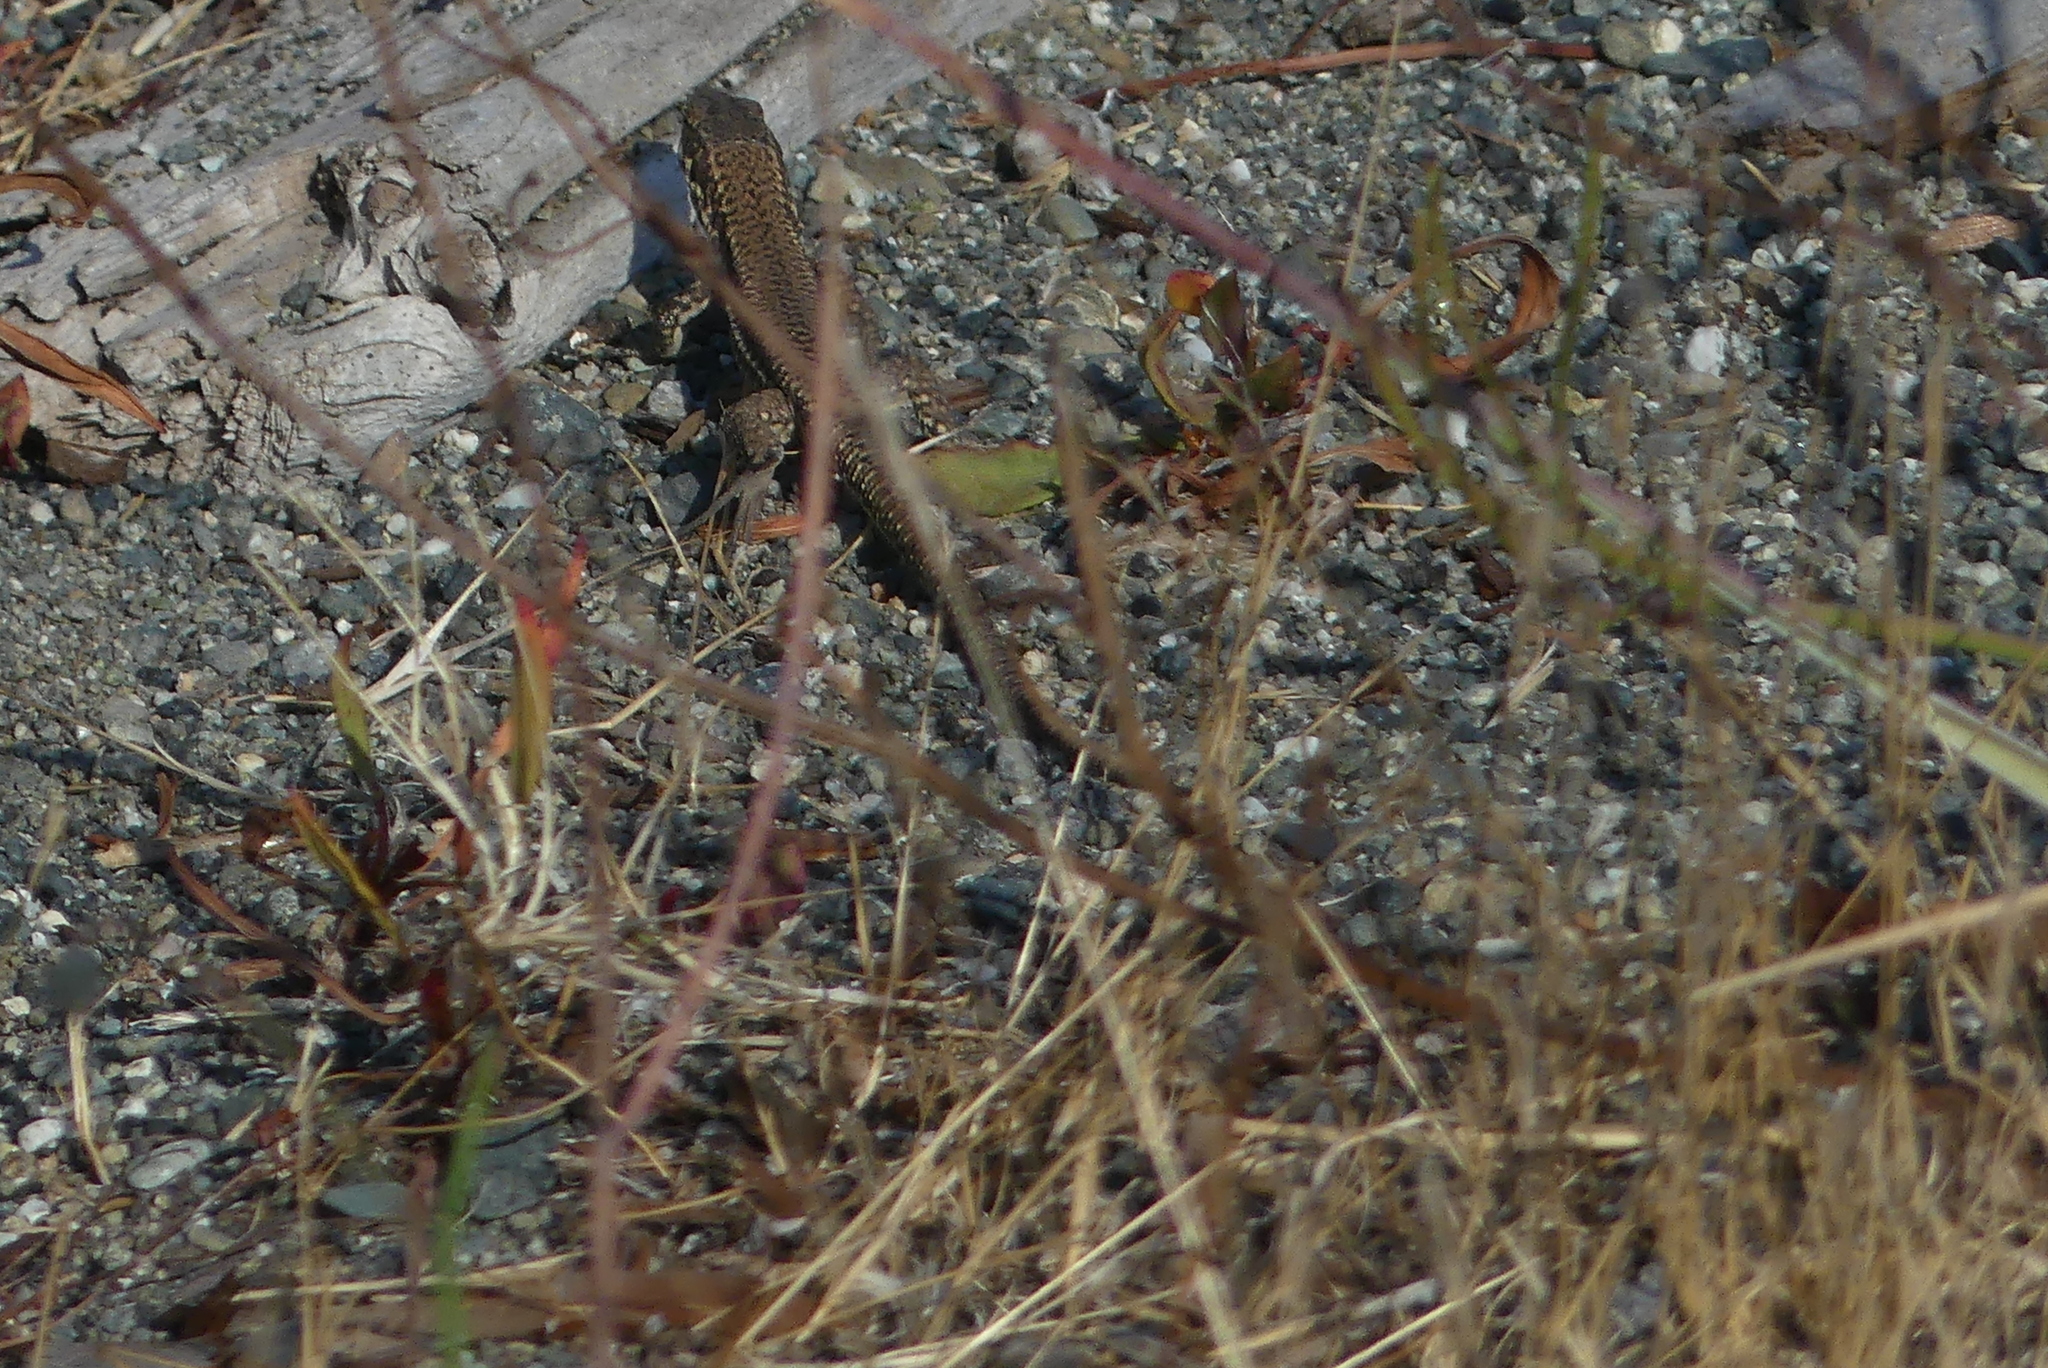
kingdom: Animalia
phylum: Chordata
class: Squamata
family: Lacertidae
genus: Podarcis
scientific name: Podarcis muralis
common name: Common wall lizard
